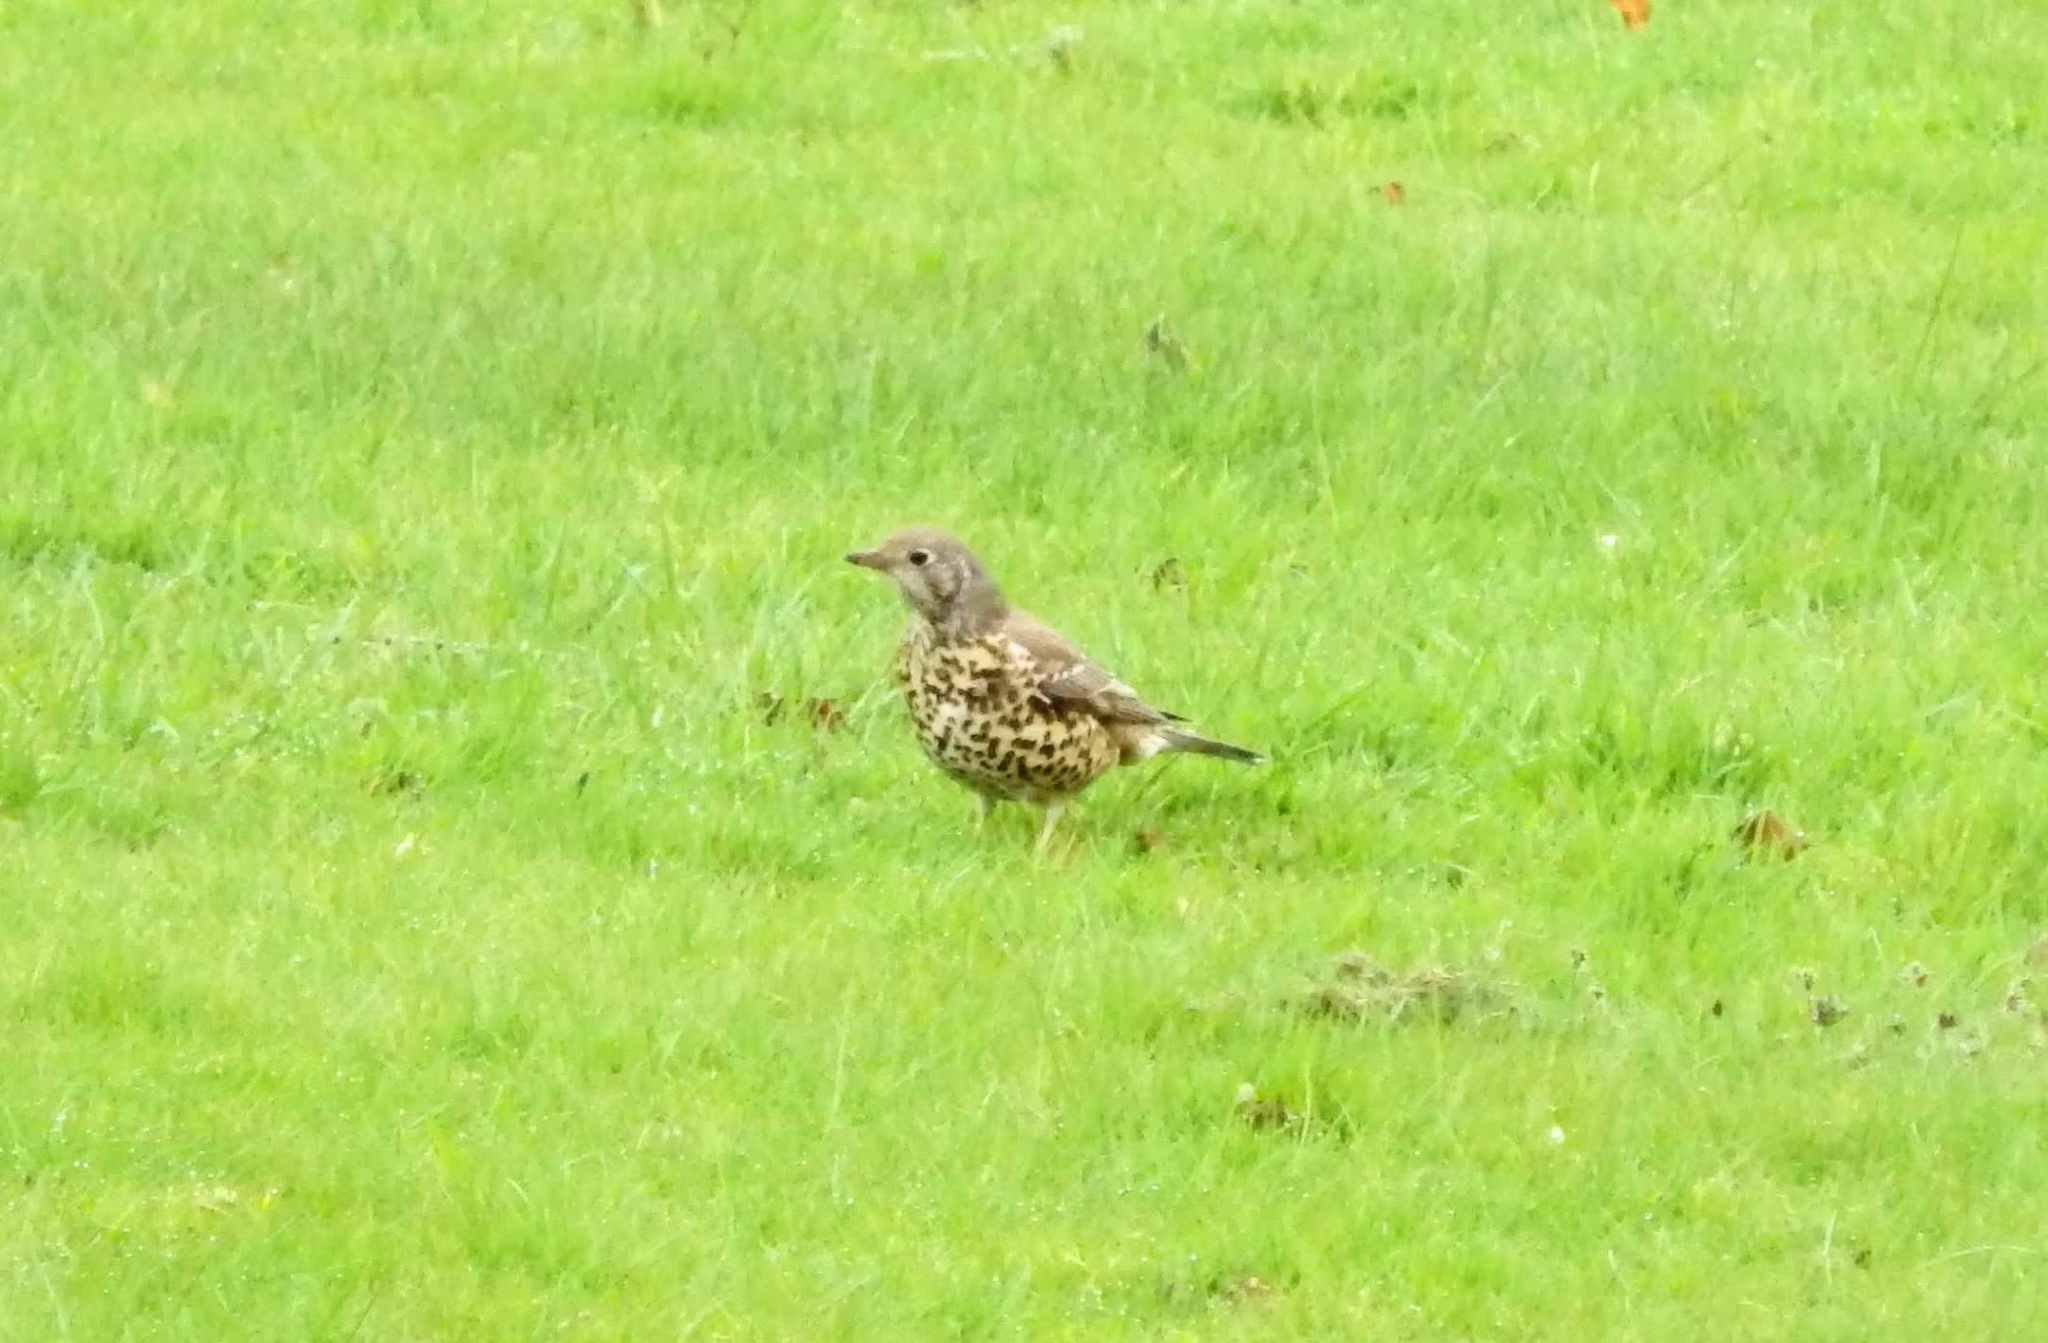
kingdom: Animalia
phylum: Chordata
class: Aves
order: Passeriformes
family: Turdidae
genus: Turdus
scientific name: Turdus viscivorus
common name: Mistle thrush
